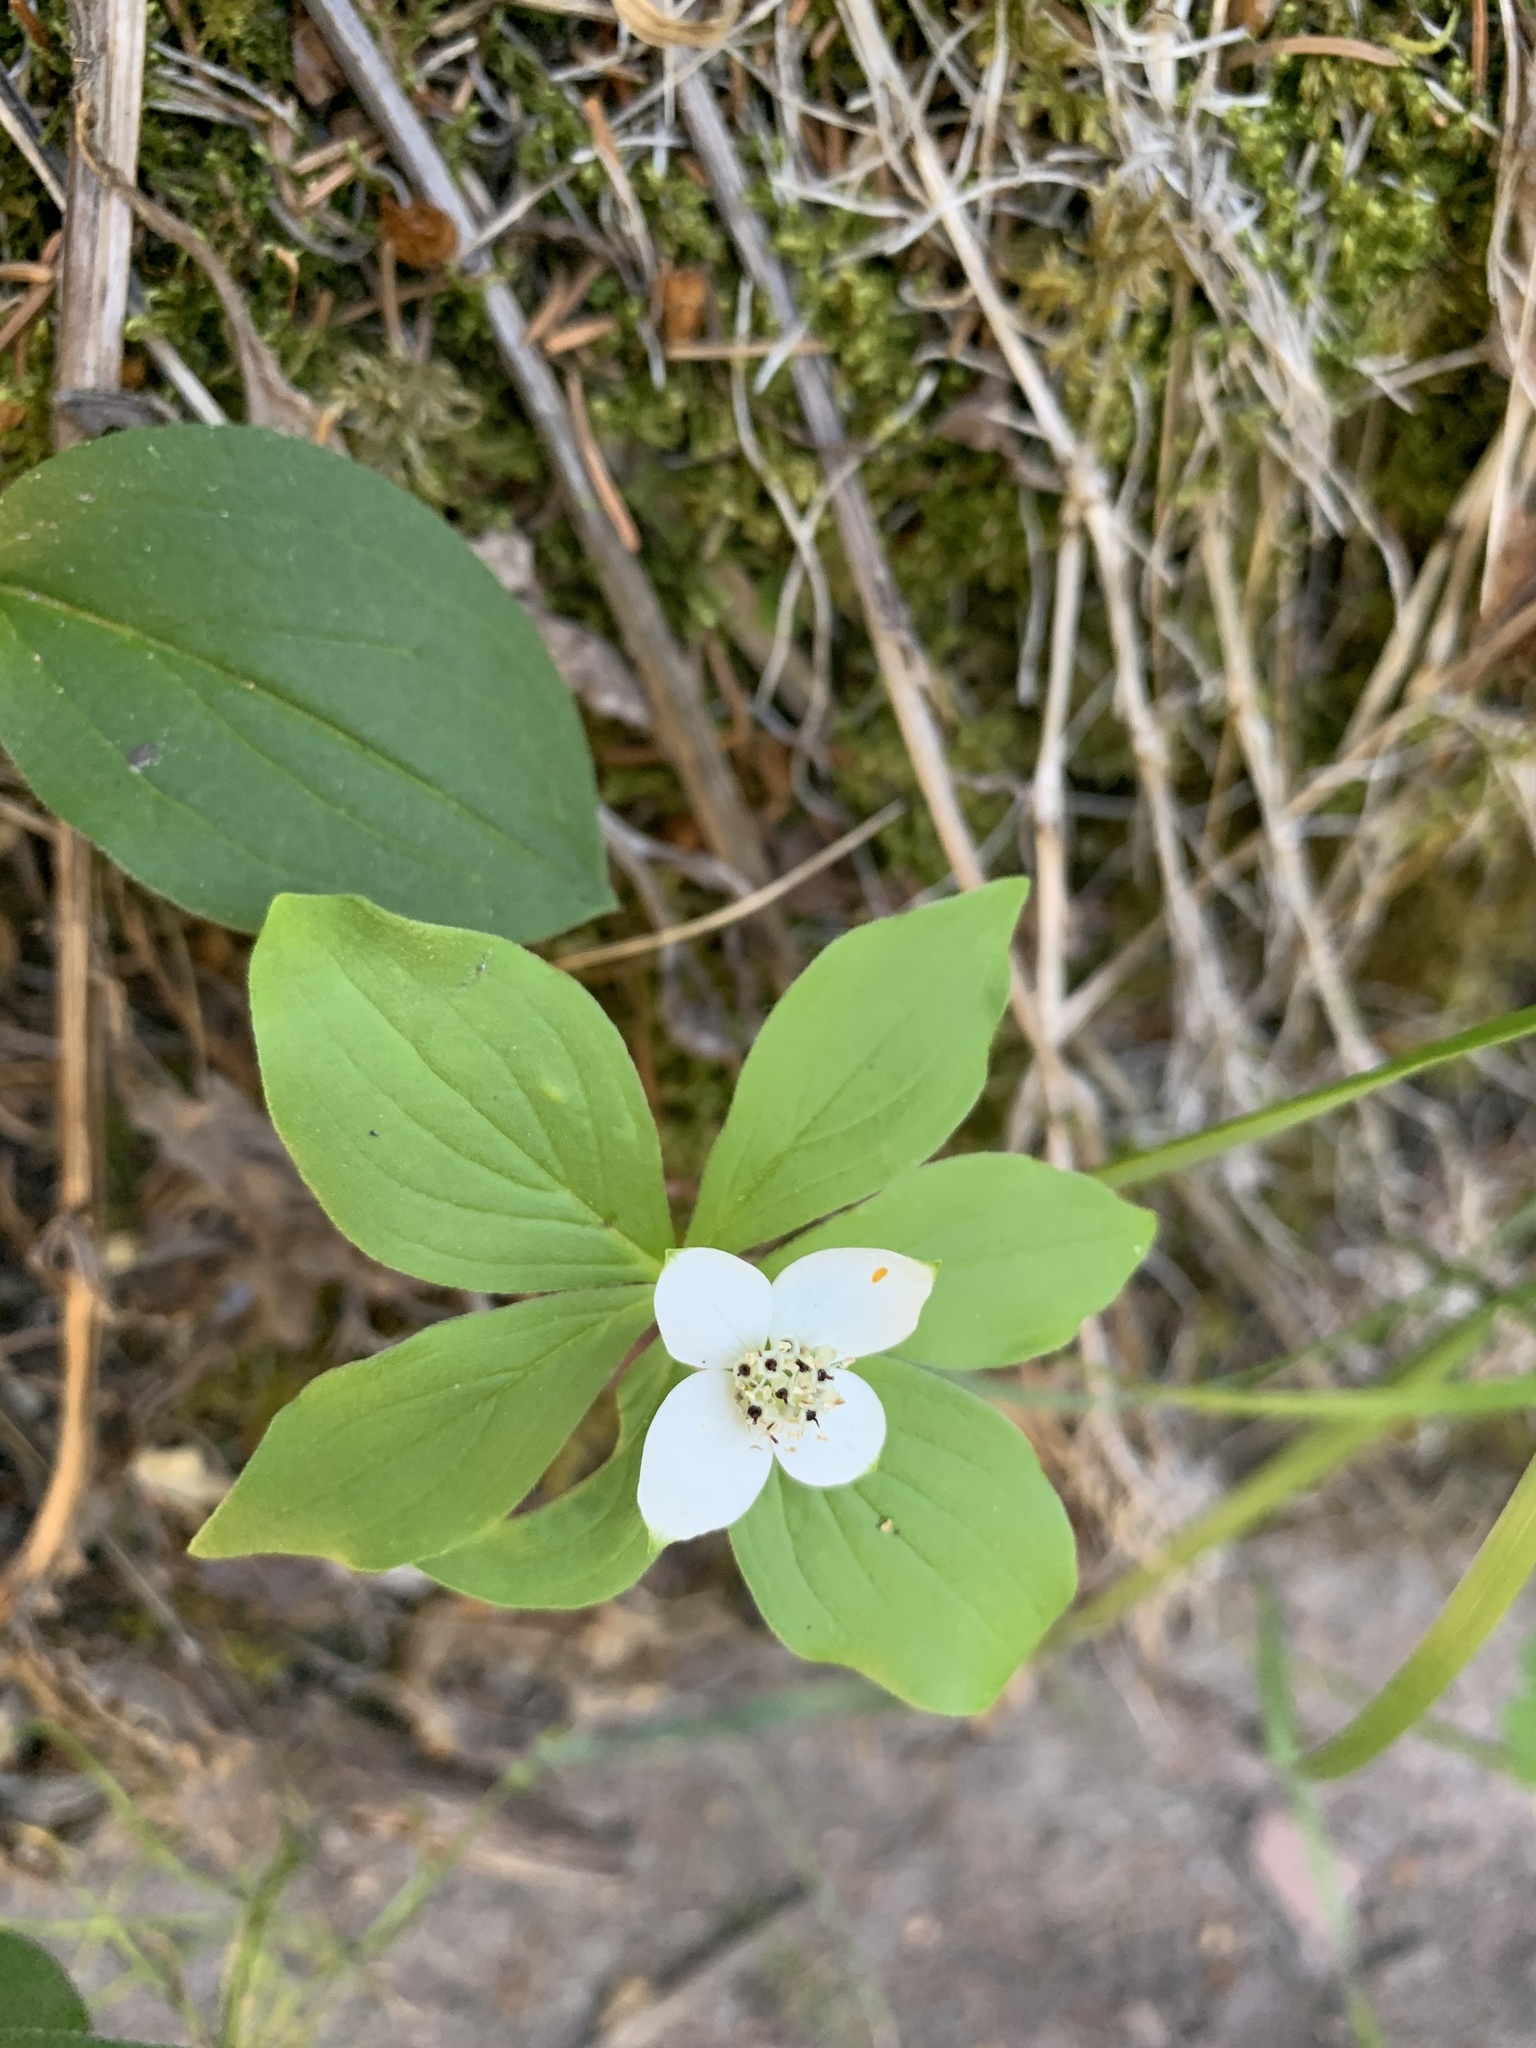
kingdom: Plantae
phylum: Tracheophyta
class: Magnoliopsida
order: Cornales
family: Cornaceae
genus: Cornus
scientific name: Cornus canadensis
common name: Creeping dogwood
